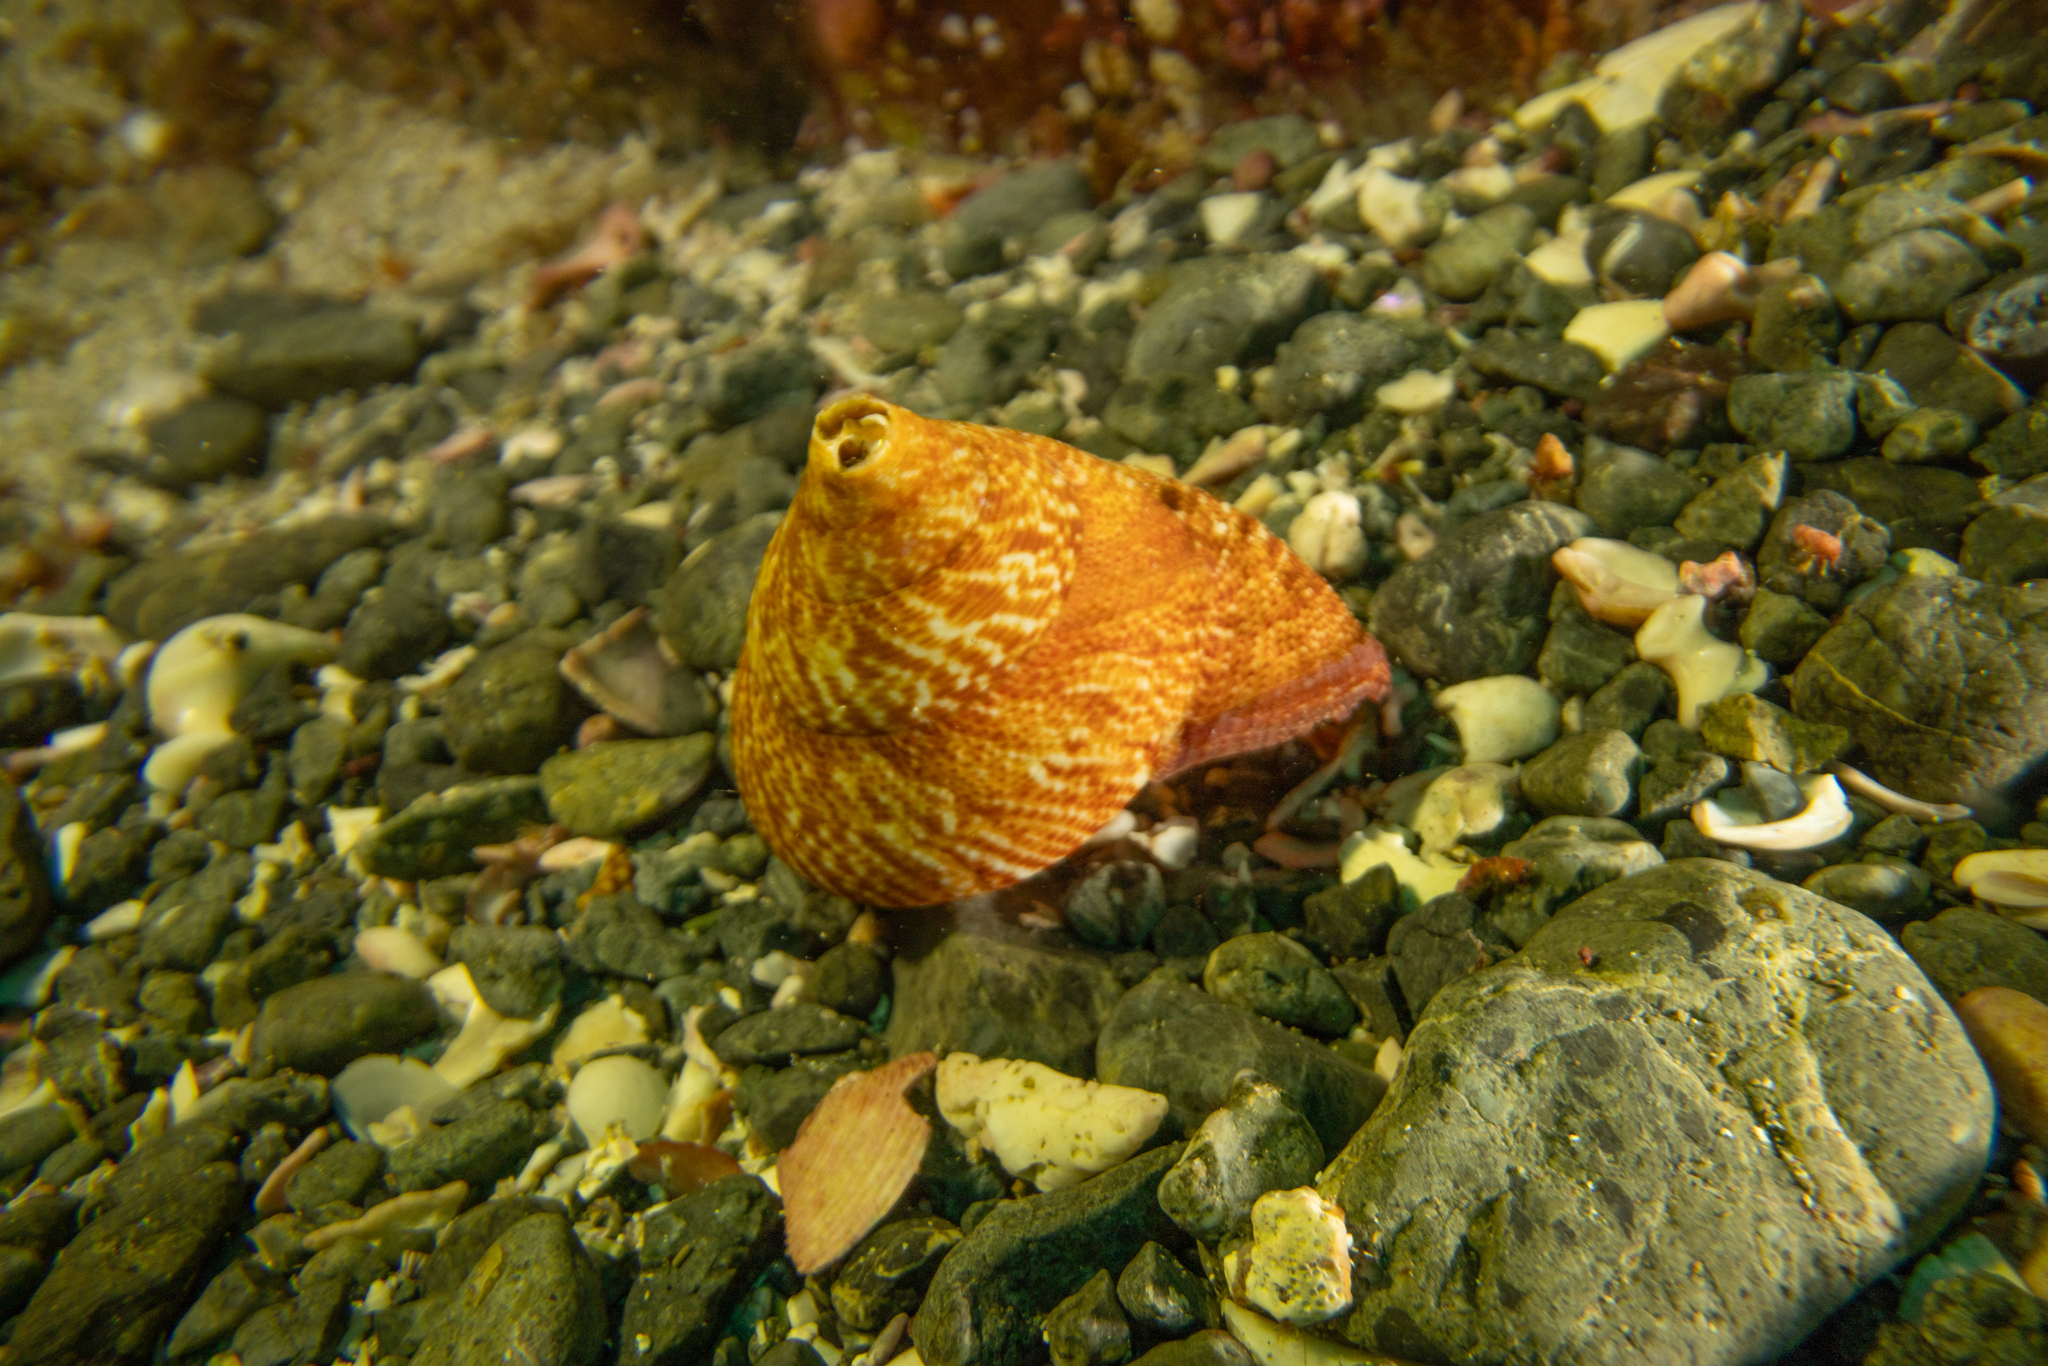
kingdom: Animalia
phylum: Mollusca
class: Gastropoda
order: Trochida
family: Calliostomatidae
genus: Maurea
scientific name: Maurea tigris
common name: Tiger maurea
